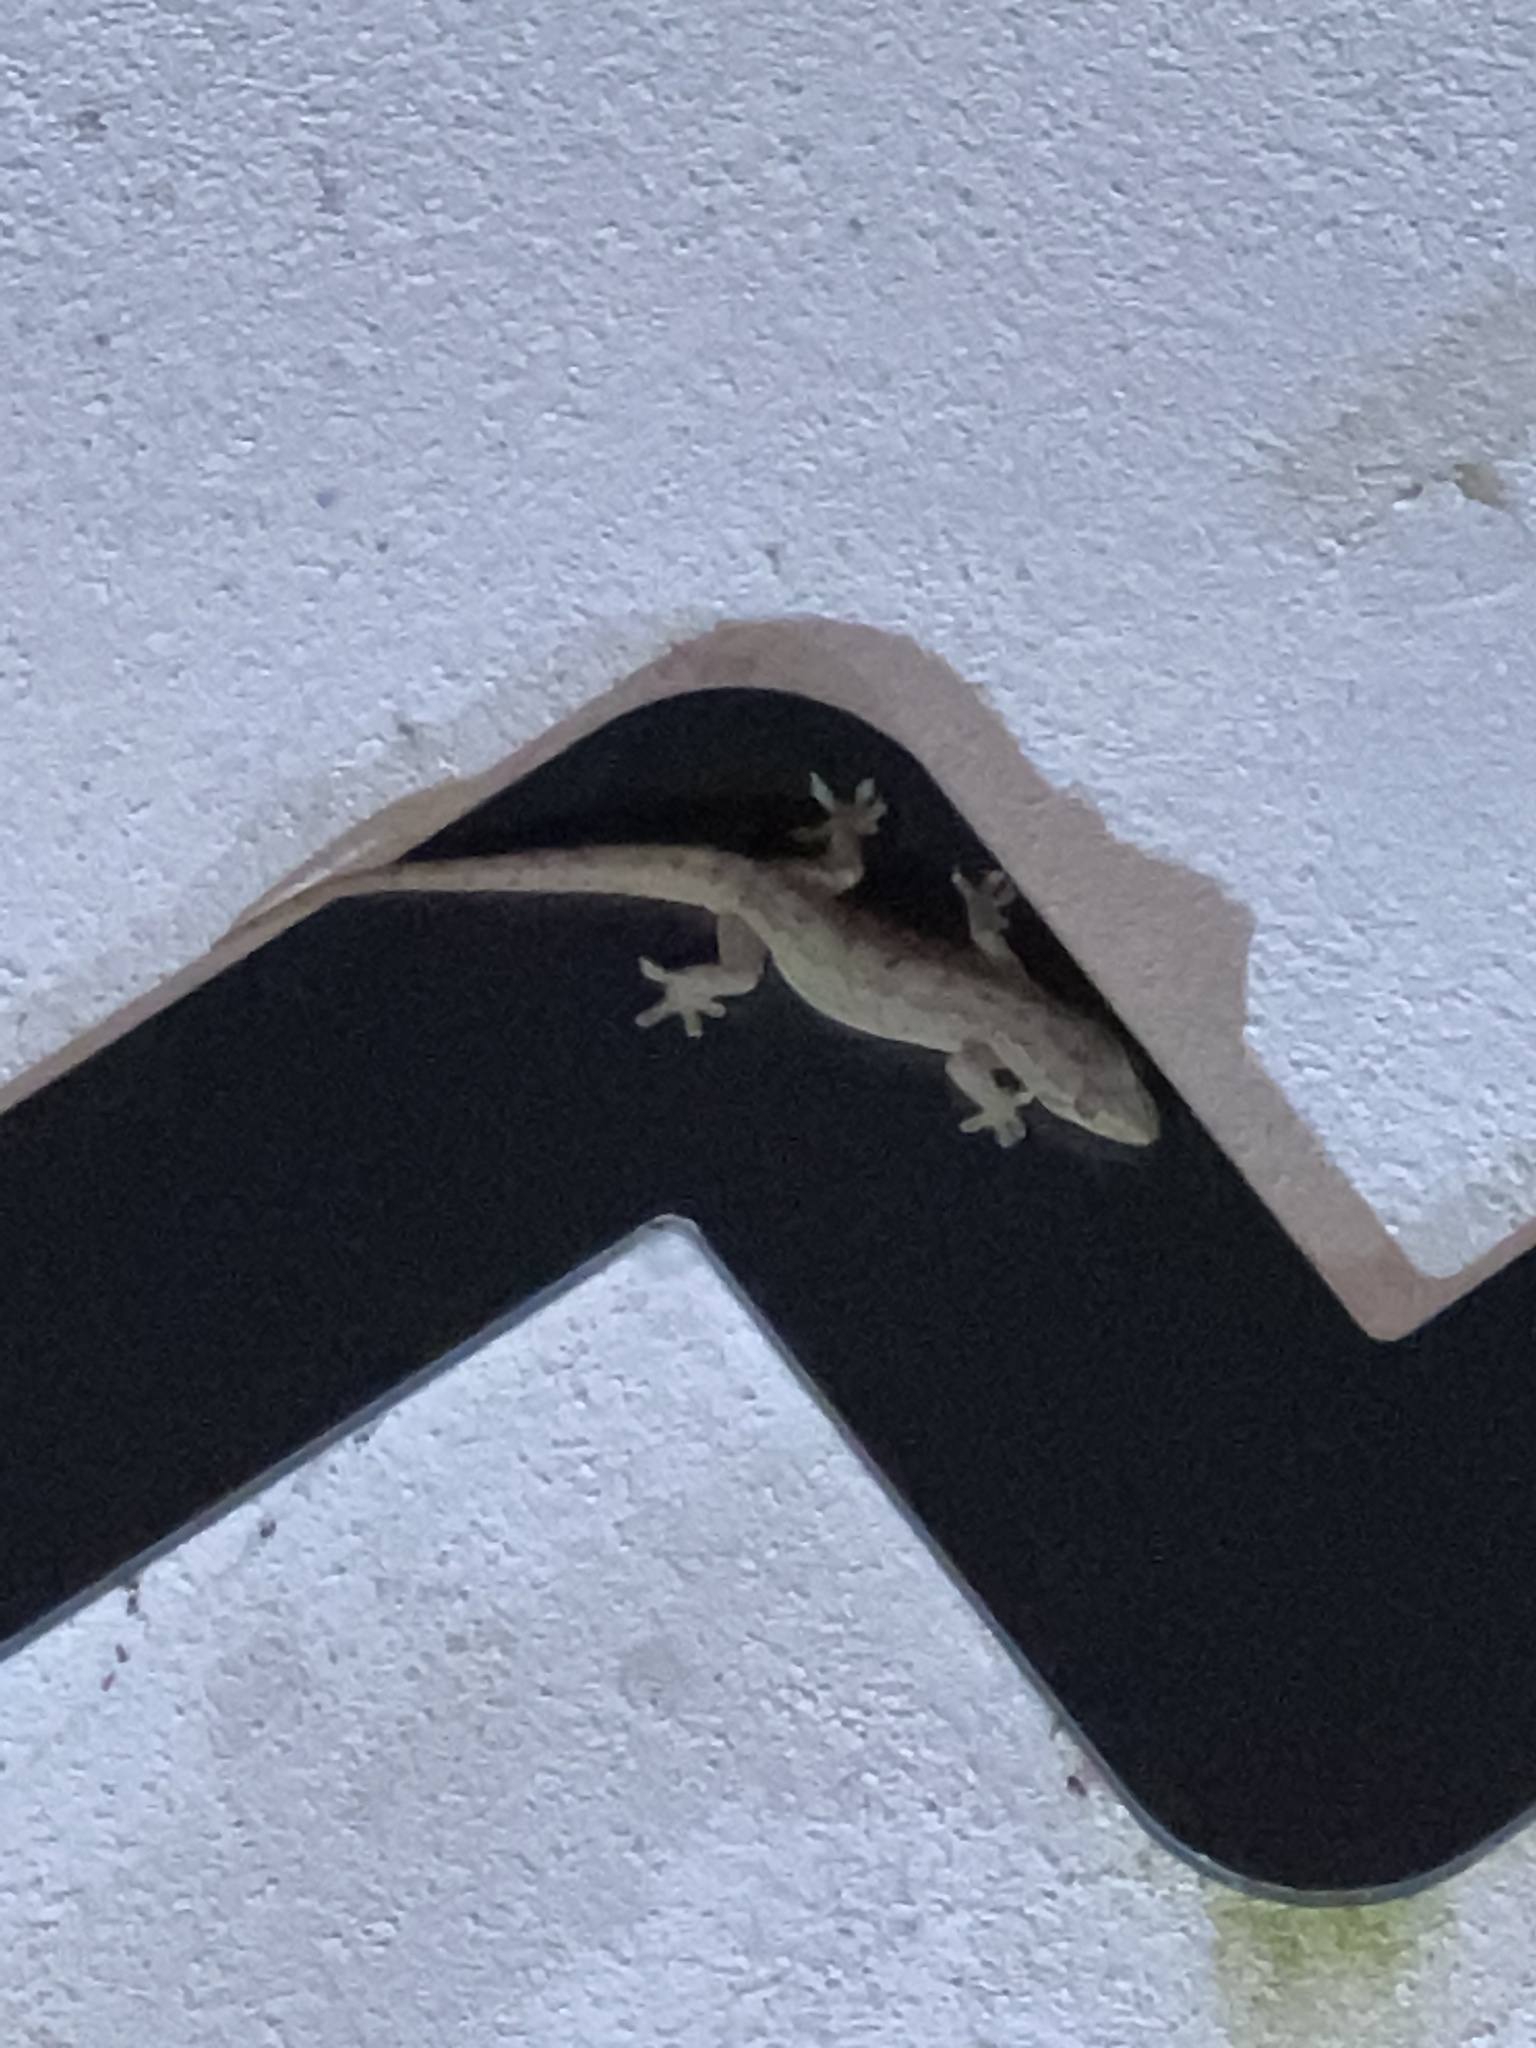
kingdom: Animalia
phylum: Chordata
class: Squamata
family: Gekkonidae
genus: Hemidactylus
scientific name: Hemidactylus frenatus
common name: Common house gecko
